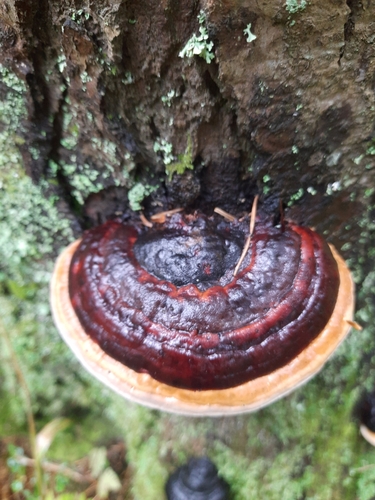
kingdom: Fungi
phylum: Basidiomycota
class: Agaricomycetes
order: Polyporales
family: Fomitopsidaceae
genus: Fomitopsis
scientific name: Fomitopsis pinicola
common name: Red-belted bracket
